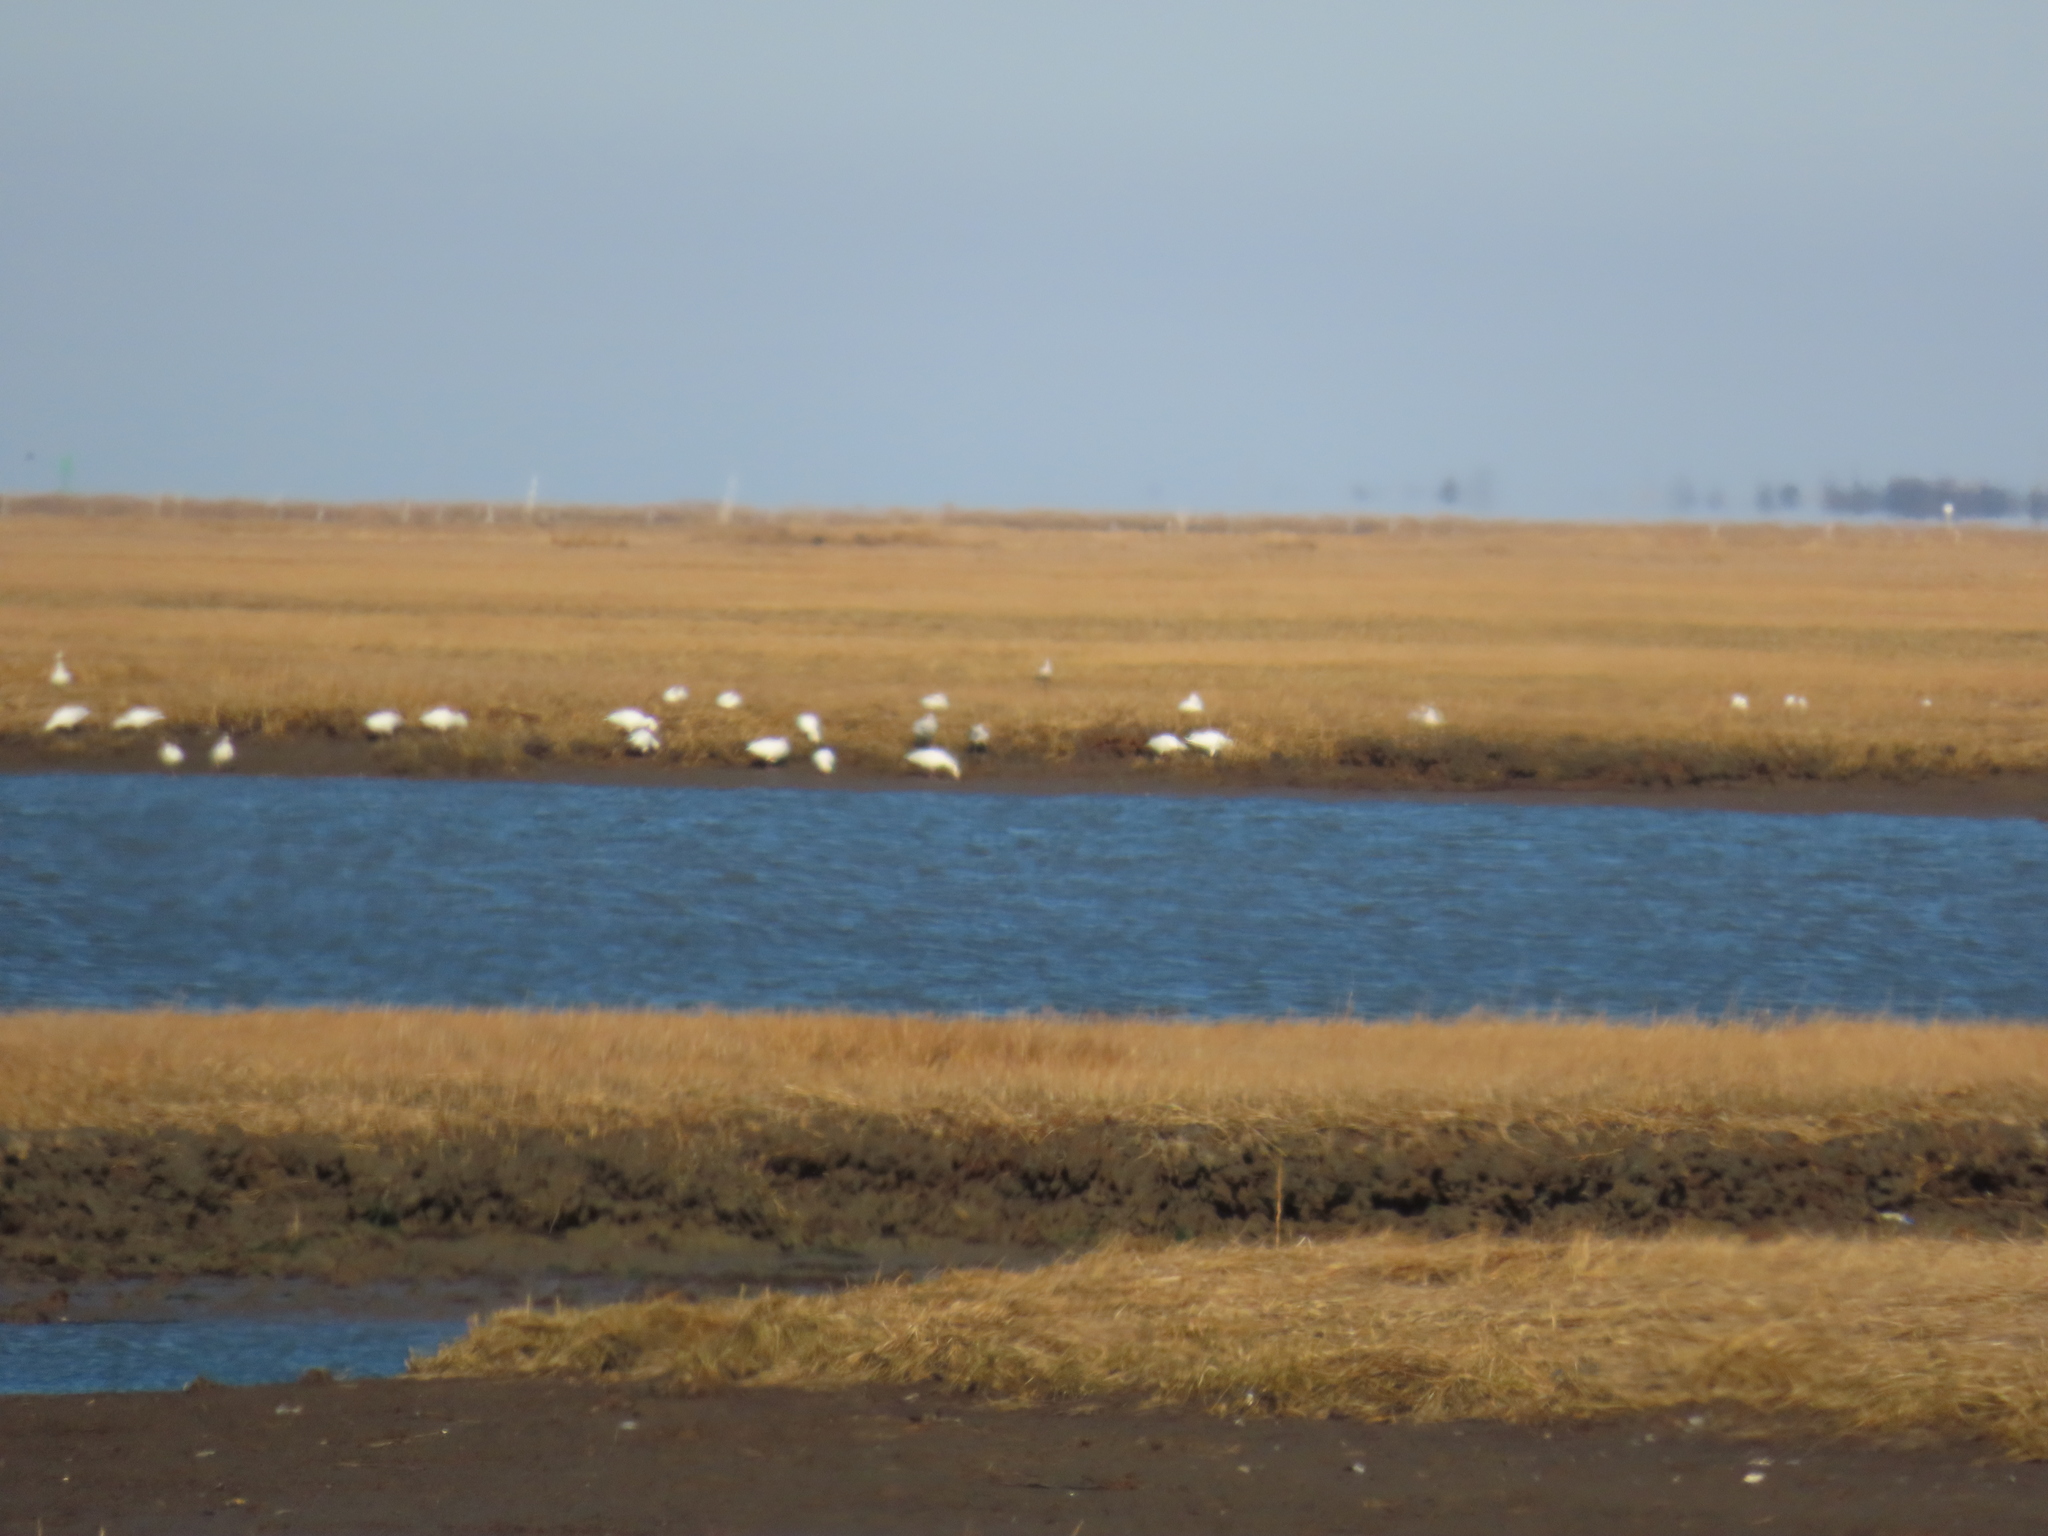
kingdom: Animalia
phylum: Chordata
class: Aves
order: Anseriformes
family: Anatidae
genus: Anser
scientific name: Anser caerulescens
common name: Snow goose
